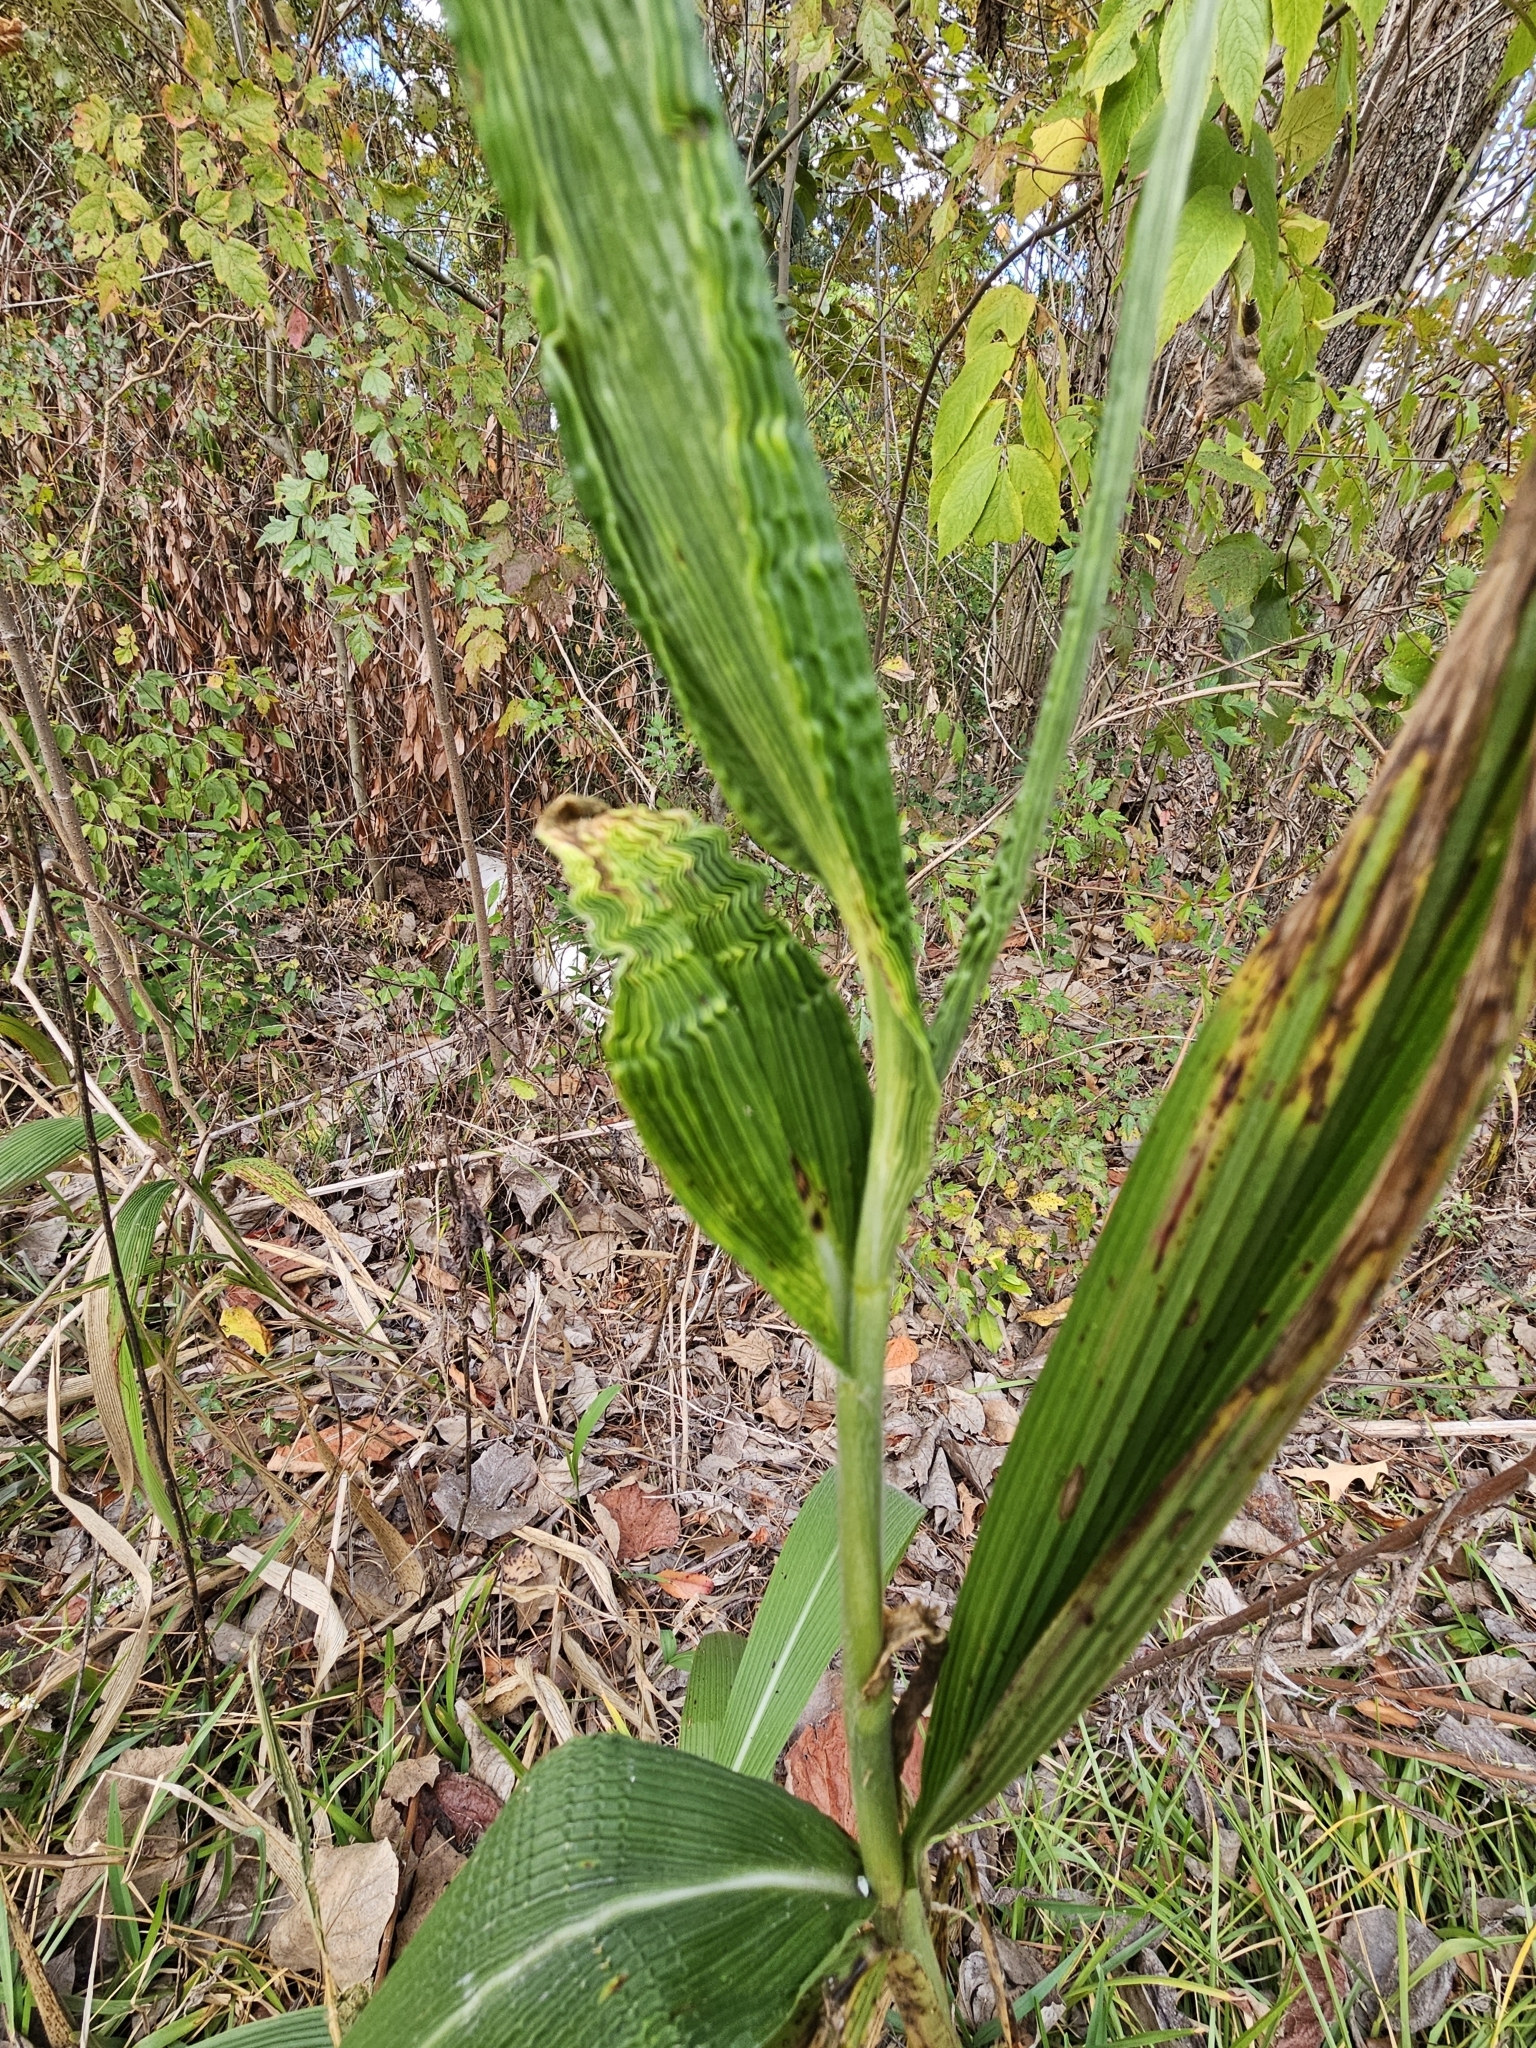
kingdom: Plantae
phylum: Tracheophyta
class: Liliopsida
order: Poales
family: Poaceae
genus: Setaria
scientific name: Setaria palmifolia
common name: Broadleaved bristlegrass
